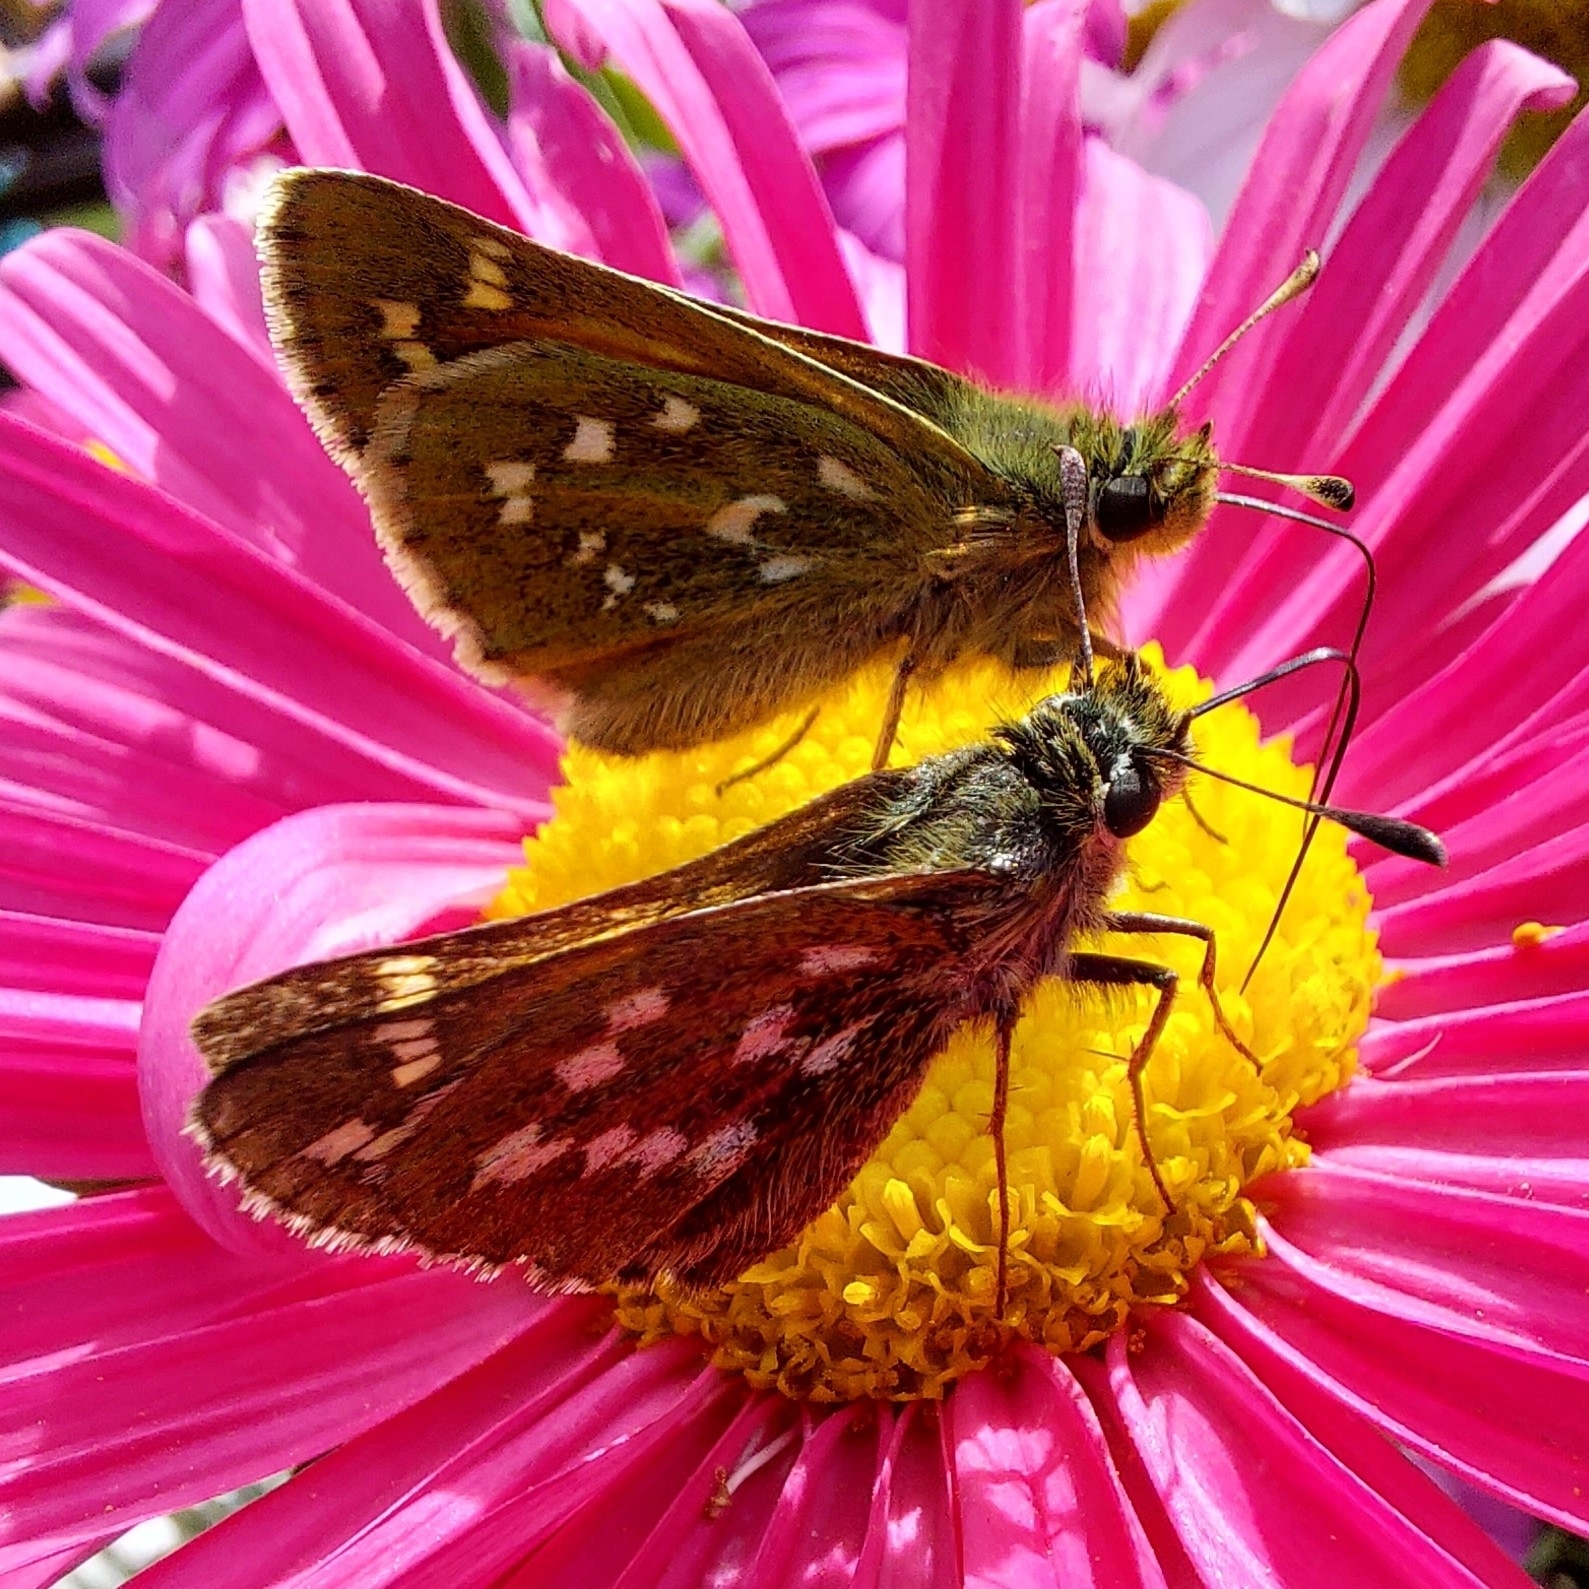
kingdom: Animalia
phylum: Arthropoda
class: Insecta
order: Lepidoptera
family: Hesperiidae
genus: Hesperia
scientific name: Hesperia comma
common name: Common branded skipper
